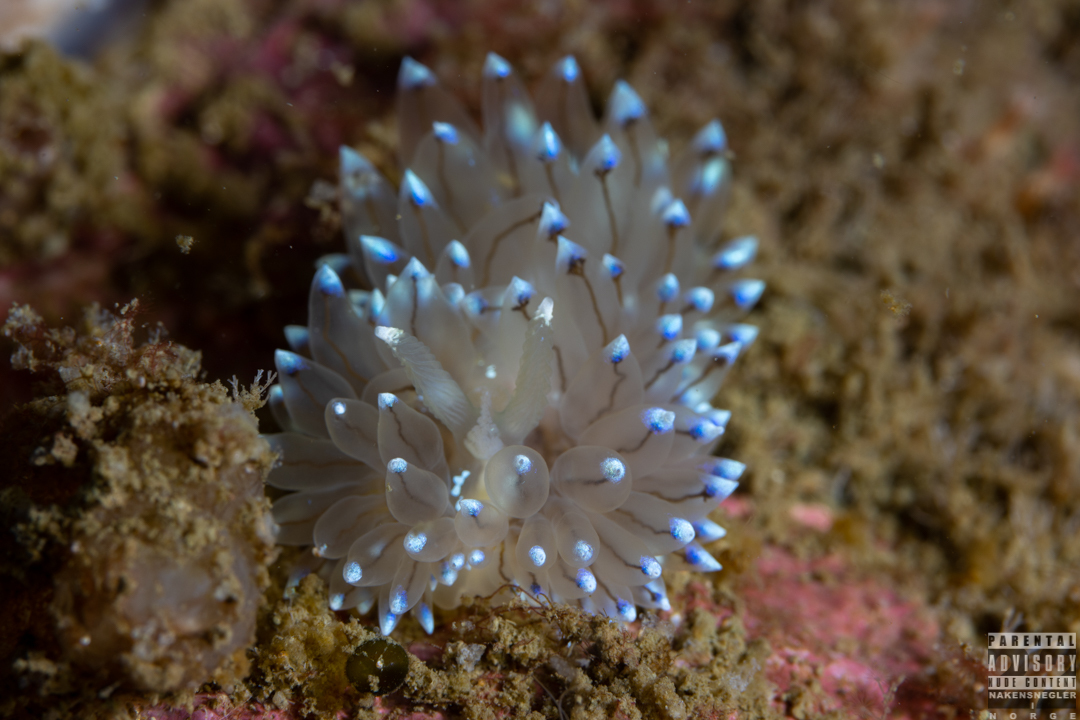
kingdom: Animalia
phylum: Mollusca
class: Gastropoda
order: Nudibranchia
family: Janolidae
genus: Antiopella
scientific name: Antiopella cristata
